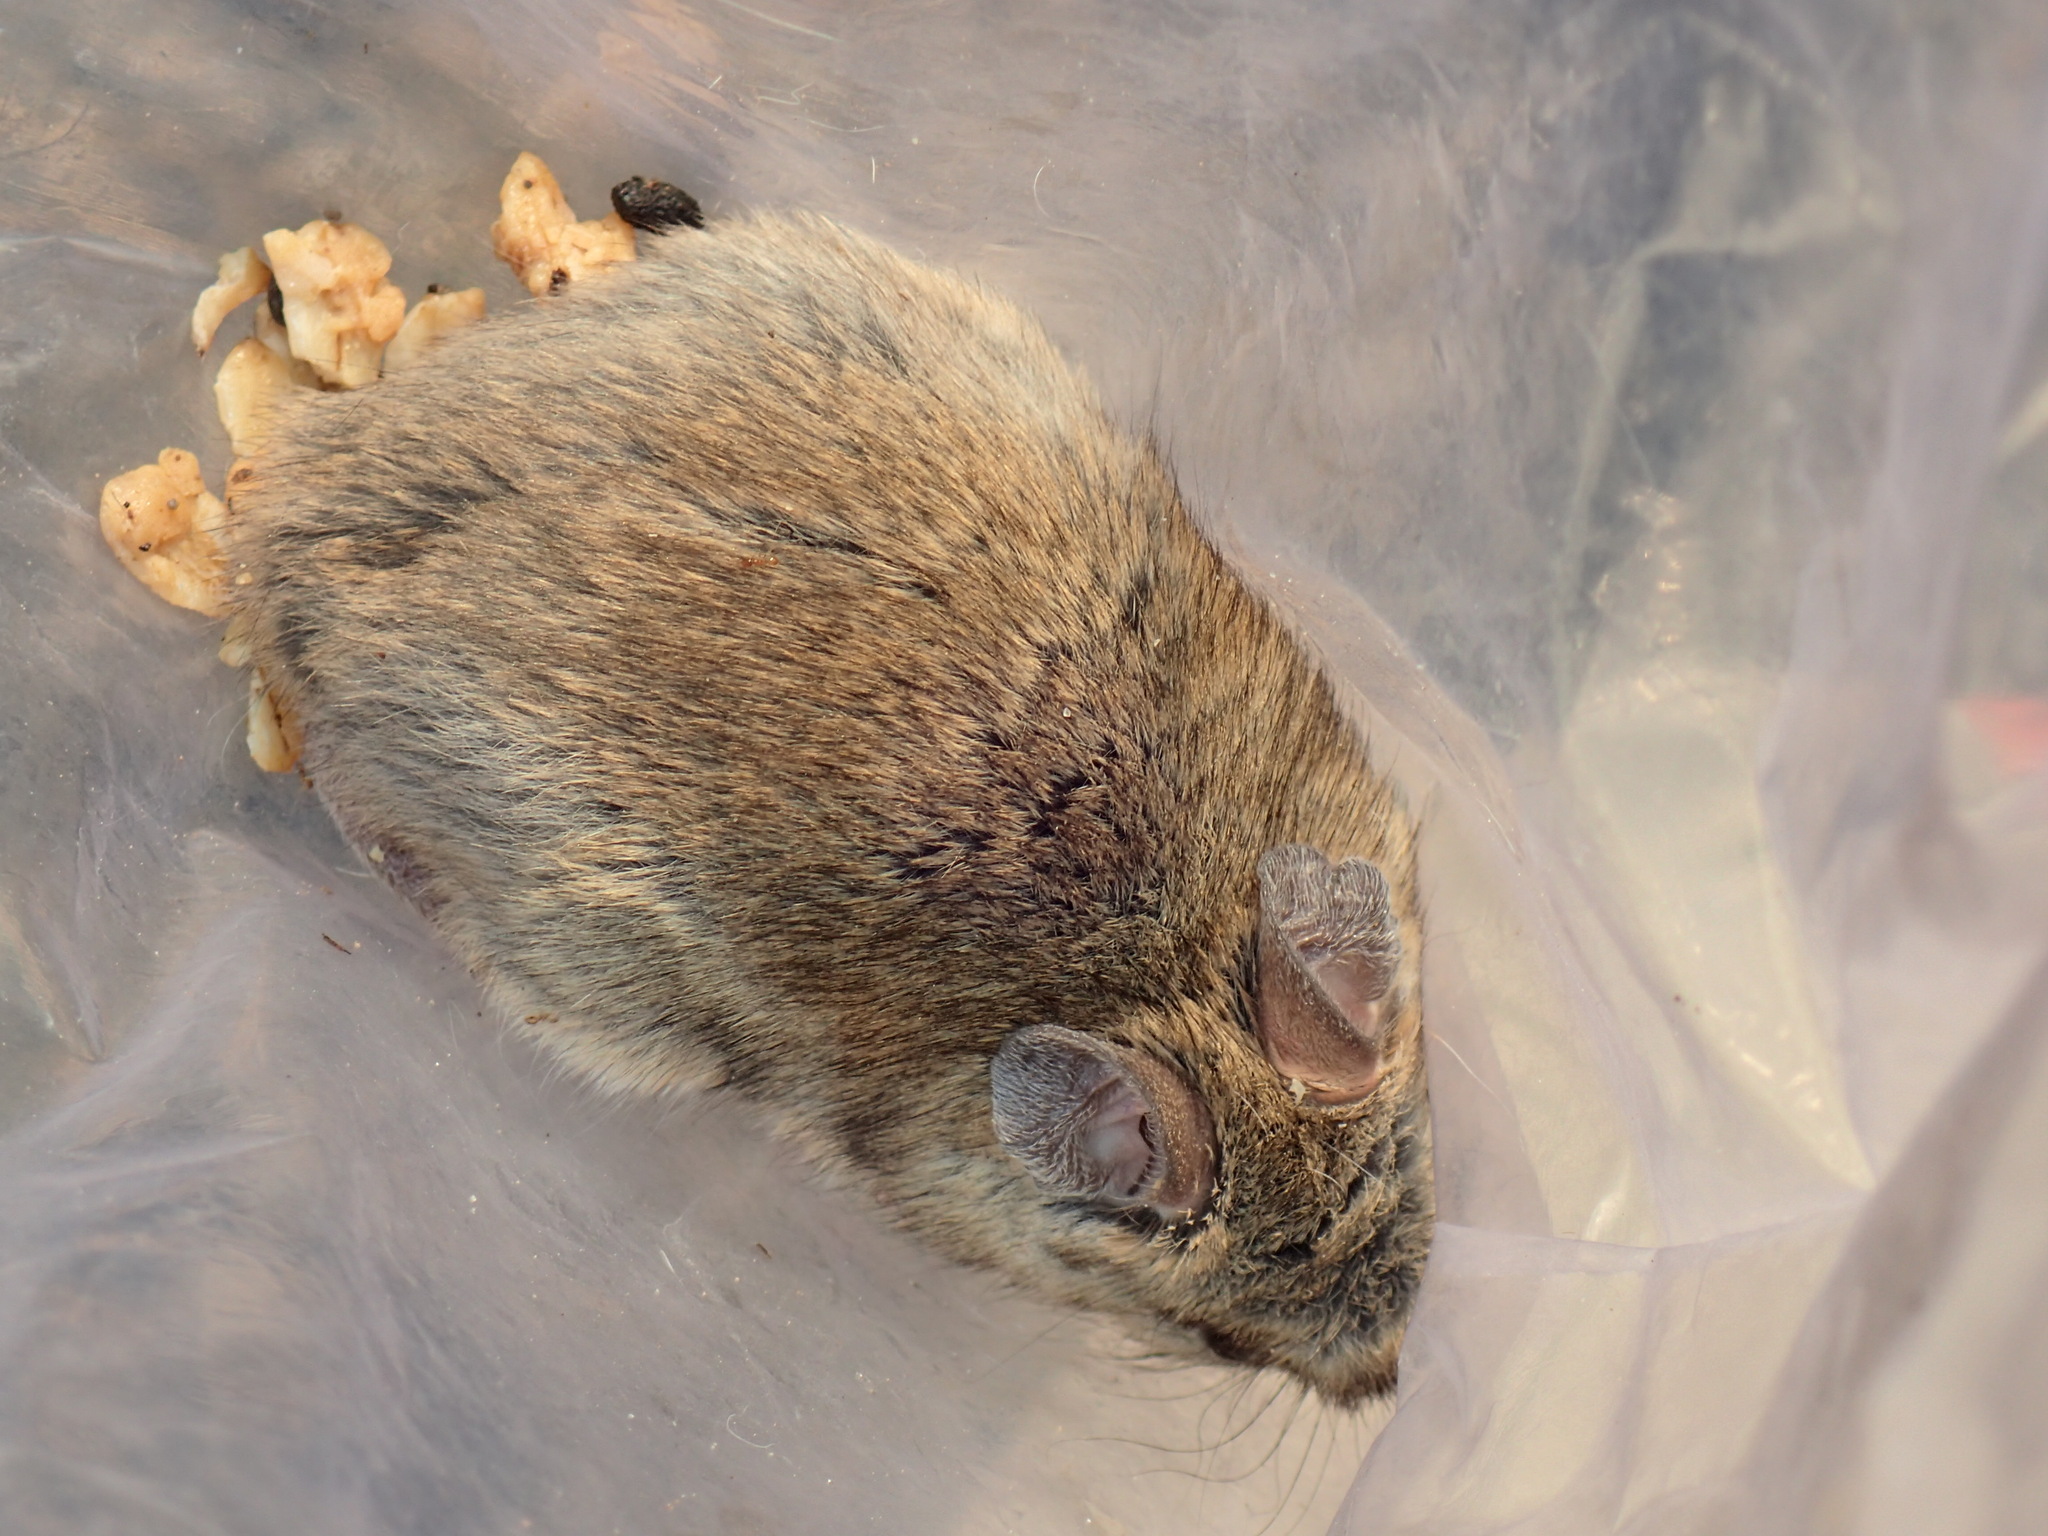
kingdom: Animalia
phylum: Chordata
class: Mammalia
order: Rodentia
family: Muridae
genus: Aethomys
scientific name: Aethomys chrysophilus
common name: Red veld aethomys
